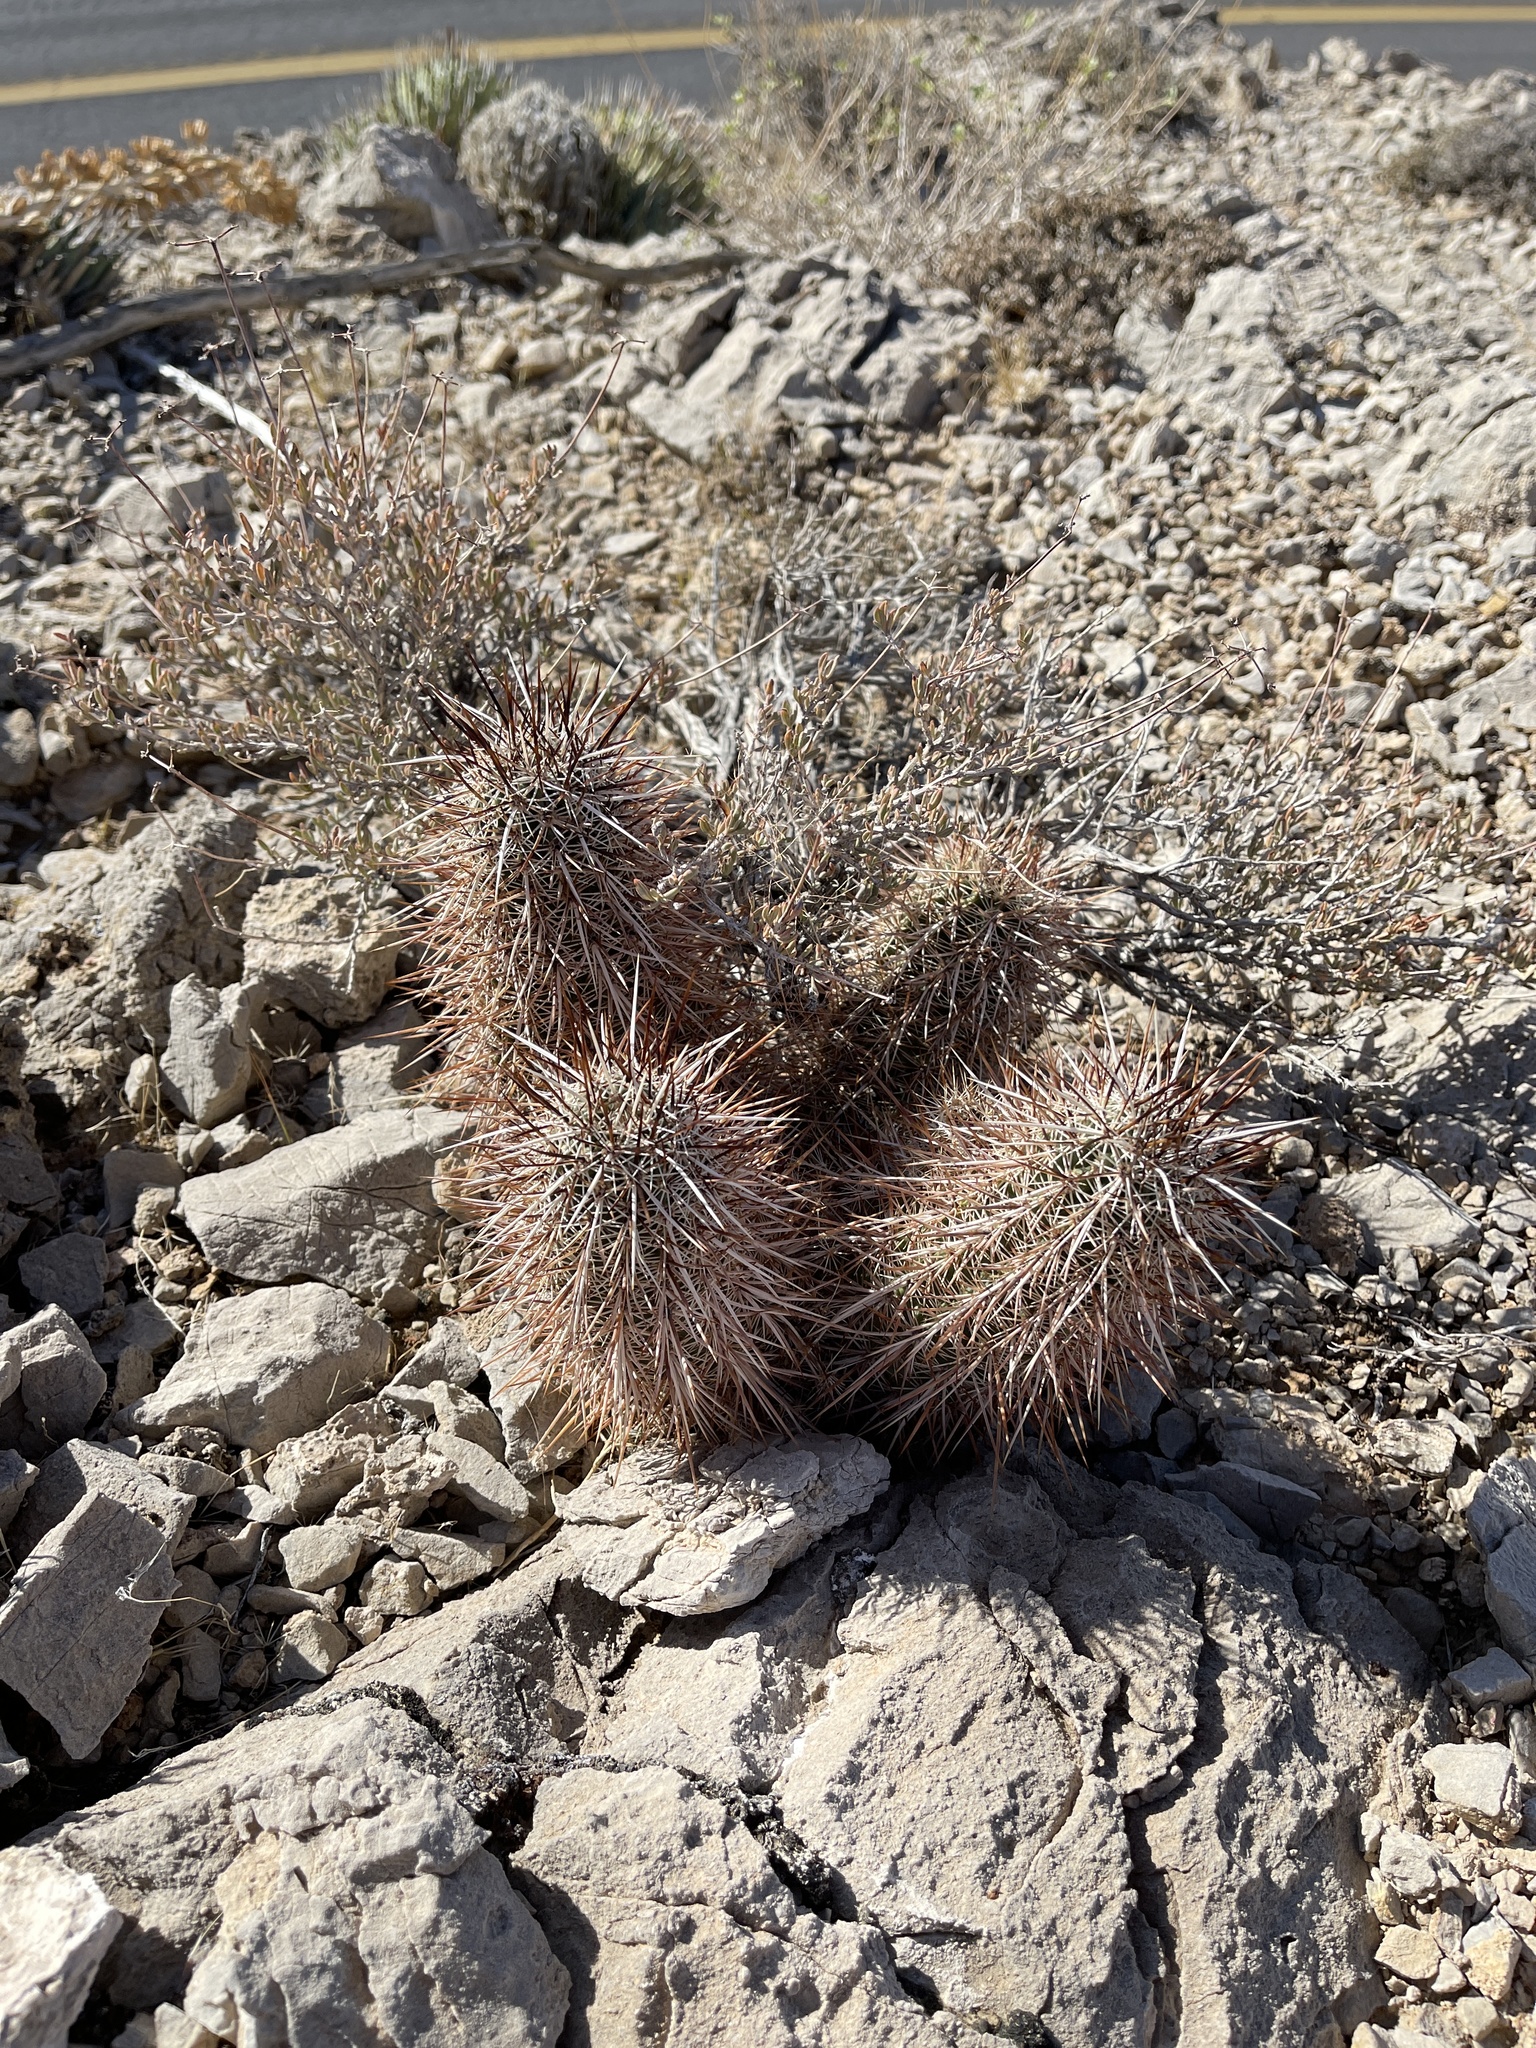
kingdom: Plantae
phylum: Tracheophyta
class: Magnoliopsida
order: Caryophyllales
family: Cactaceae
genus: Echinocereus
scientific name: Echinocereus engelmannii
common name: Engelmann's hedgehog cactus
